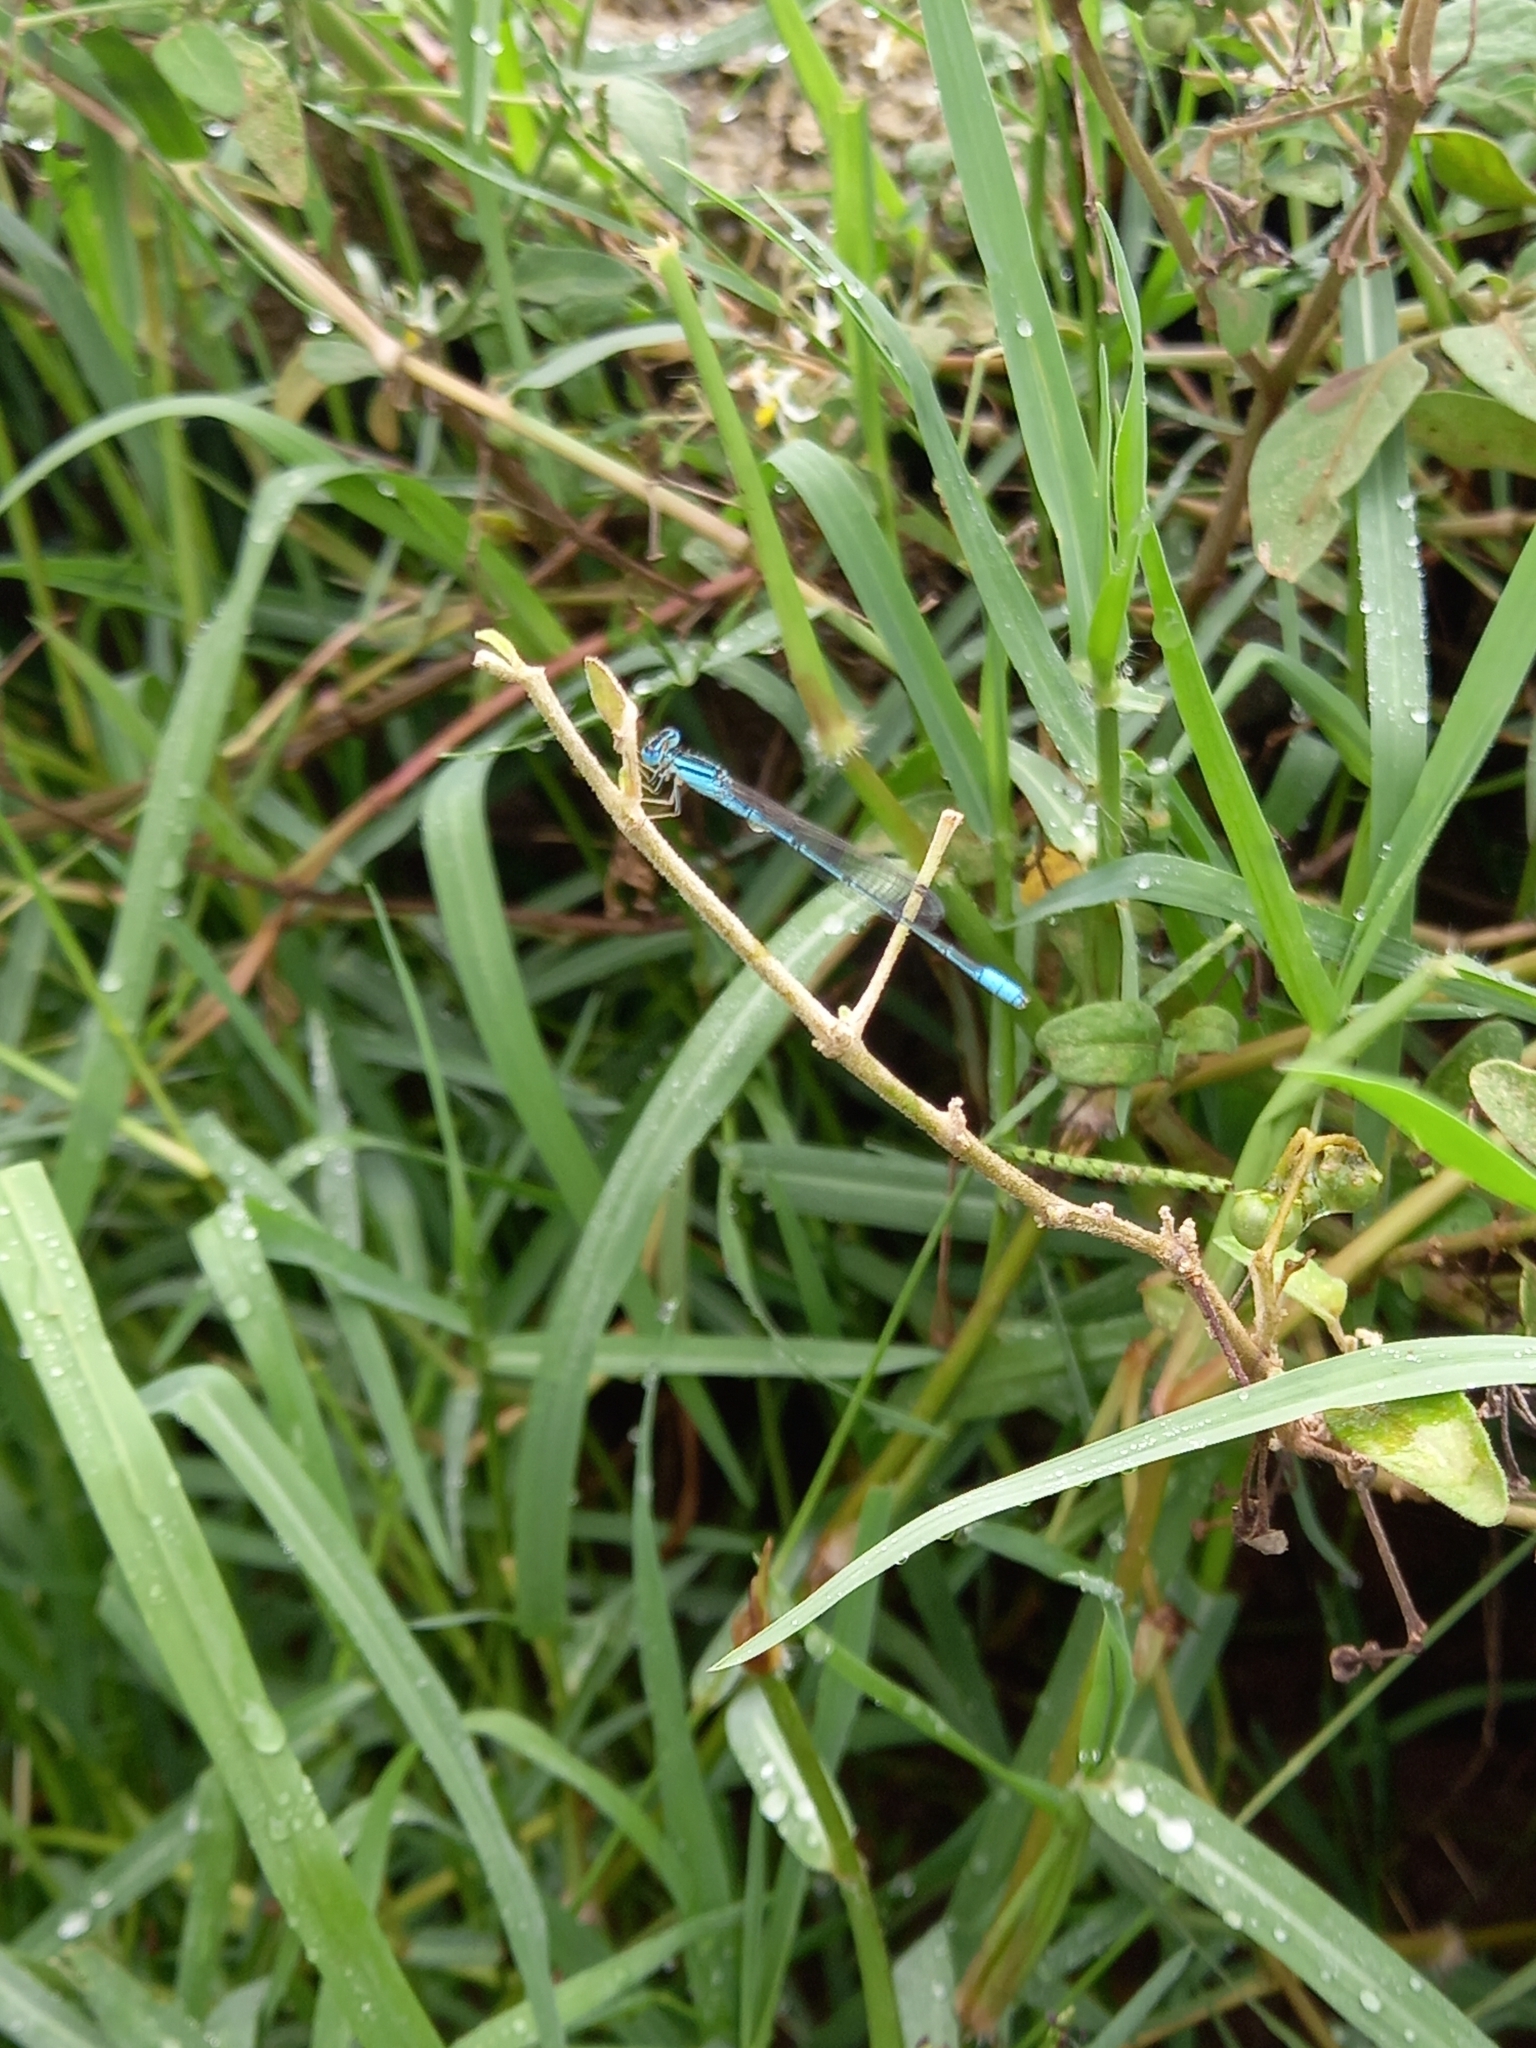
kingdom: Animalia
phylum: Arthropoda
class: Insecta
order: Odonata
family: Coenagrionidae
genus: Africallagma
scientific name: Africallagma glaucum
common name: Swamp bluet
